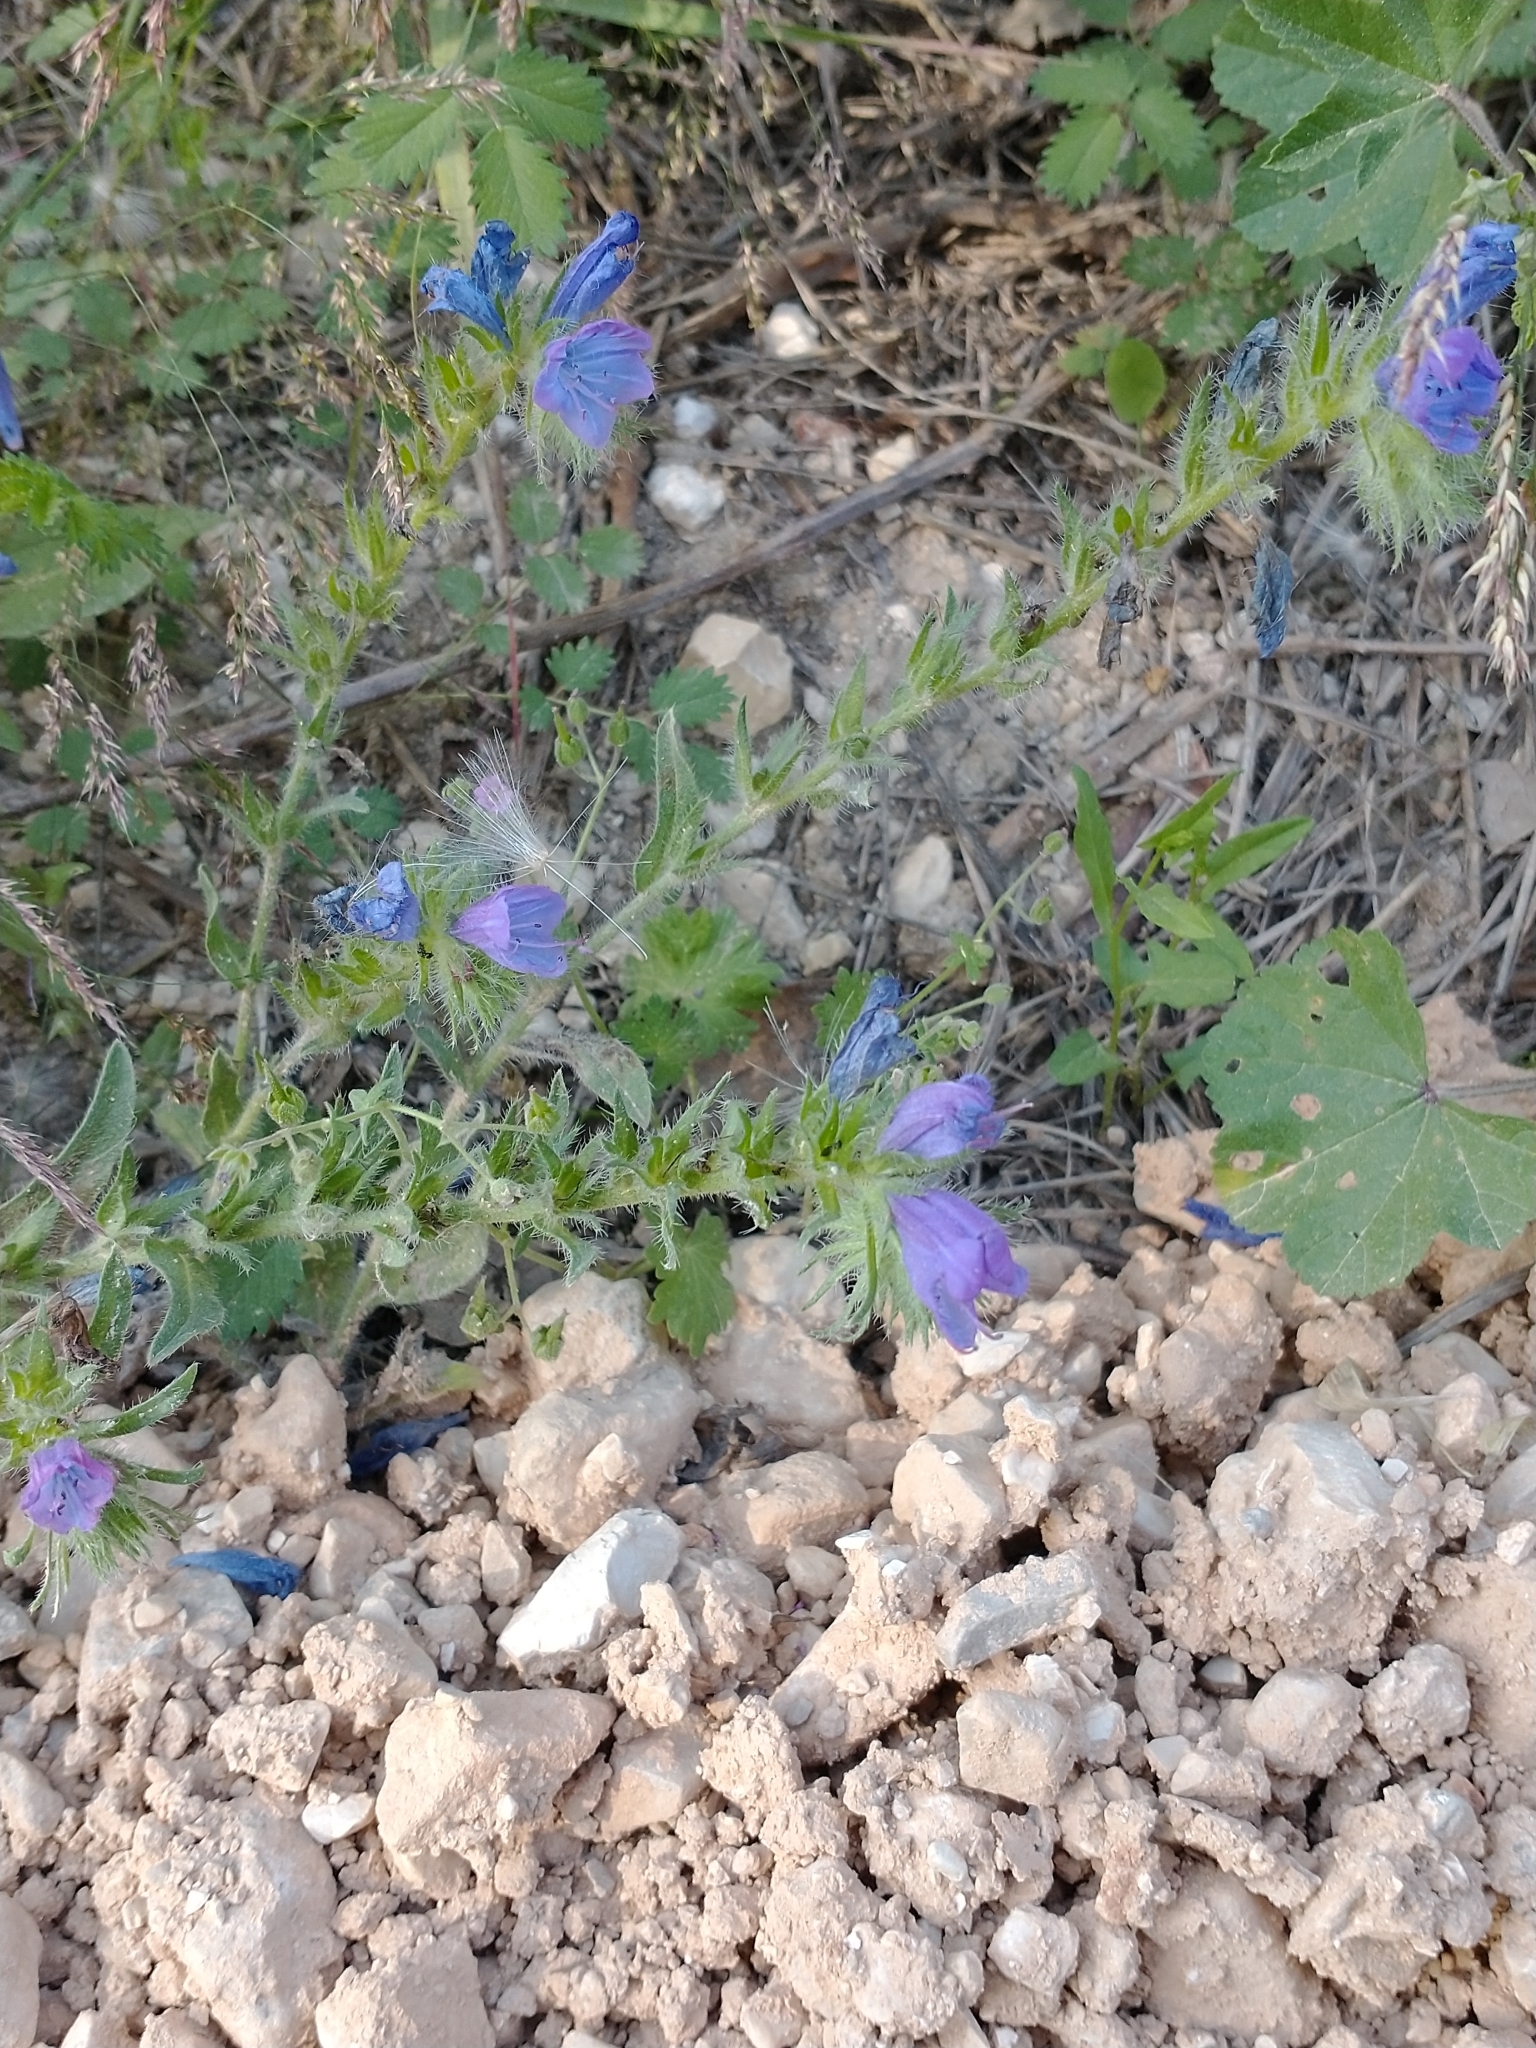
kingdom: Plantae
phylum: Tracheophyta
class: Magnoliopsida
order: Boraginales
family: Boraginaceae
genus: Echium
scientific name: Echium plantagineum
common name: Purple viper's-bugloss
